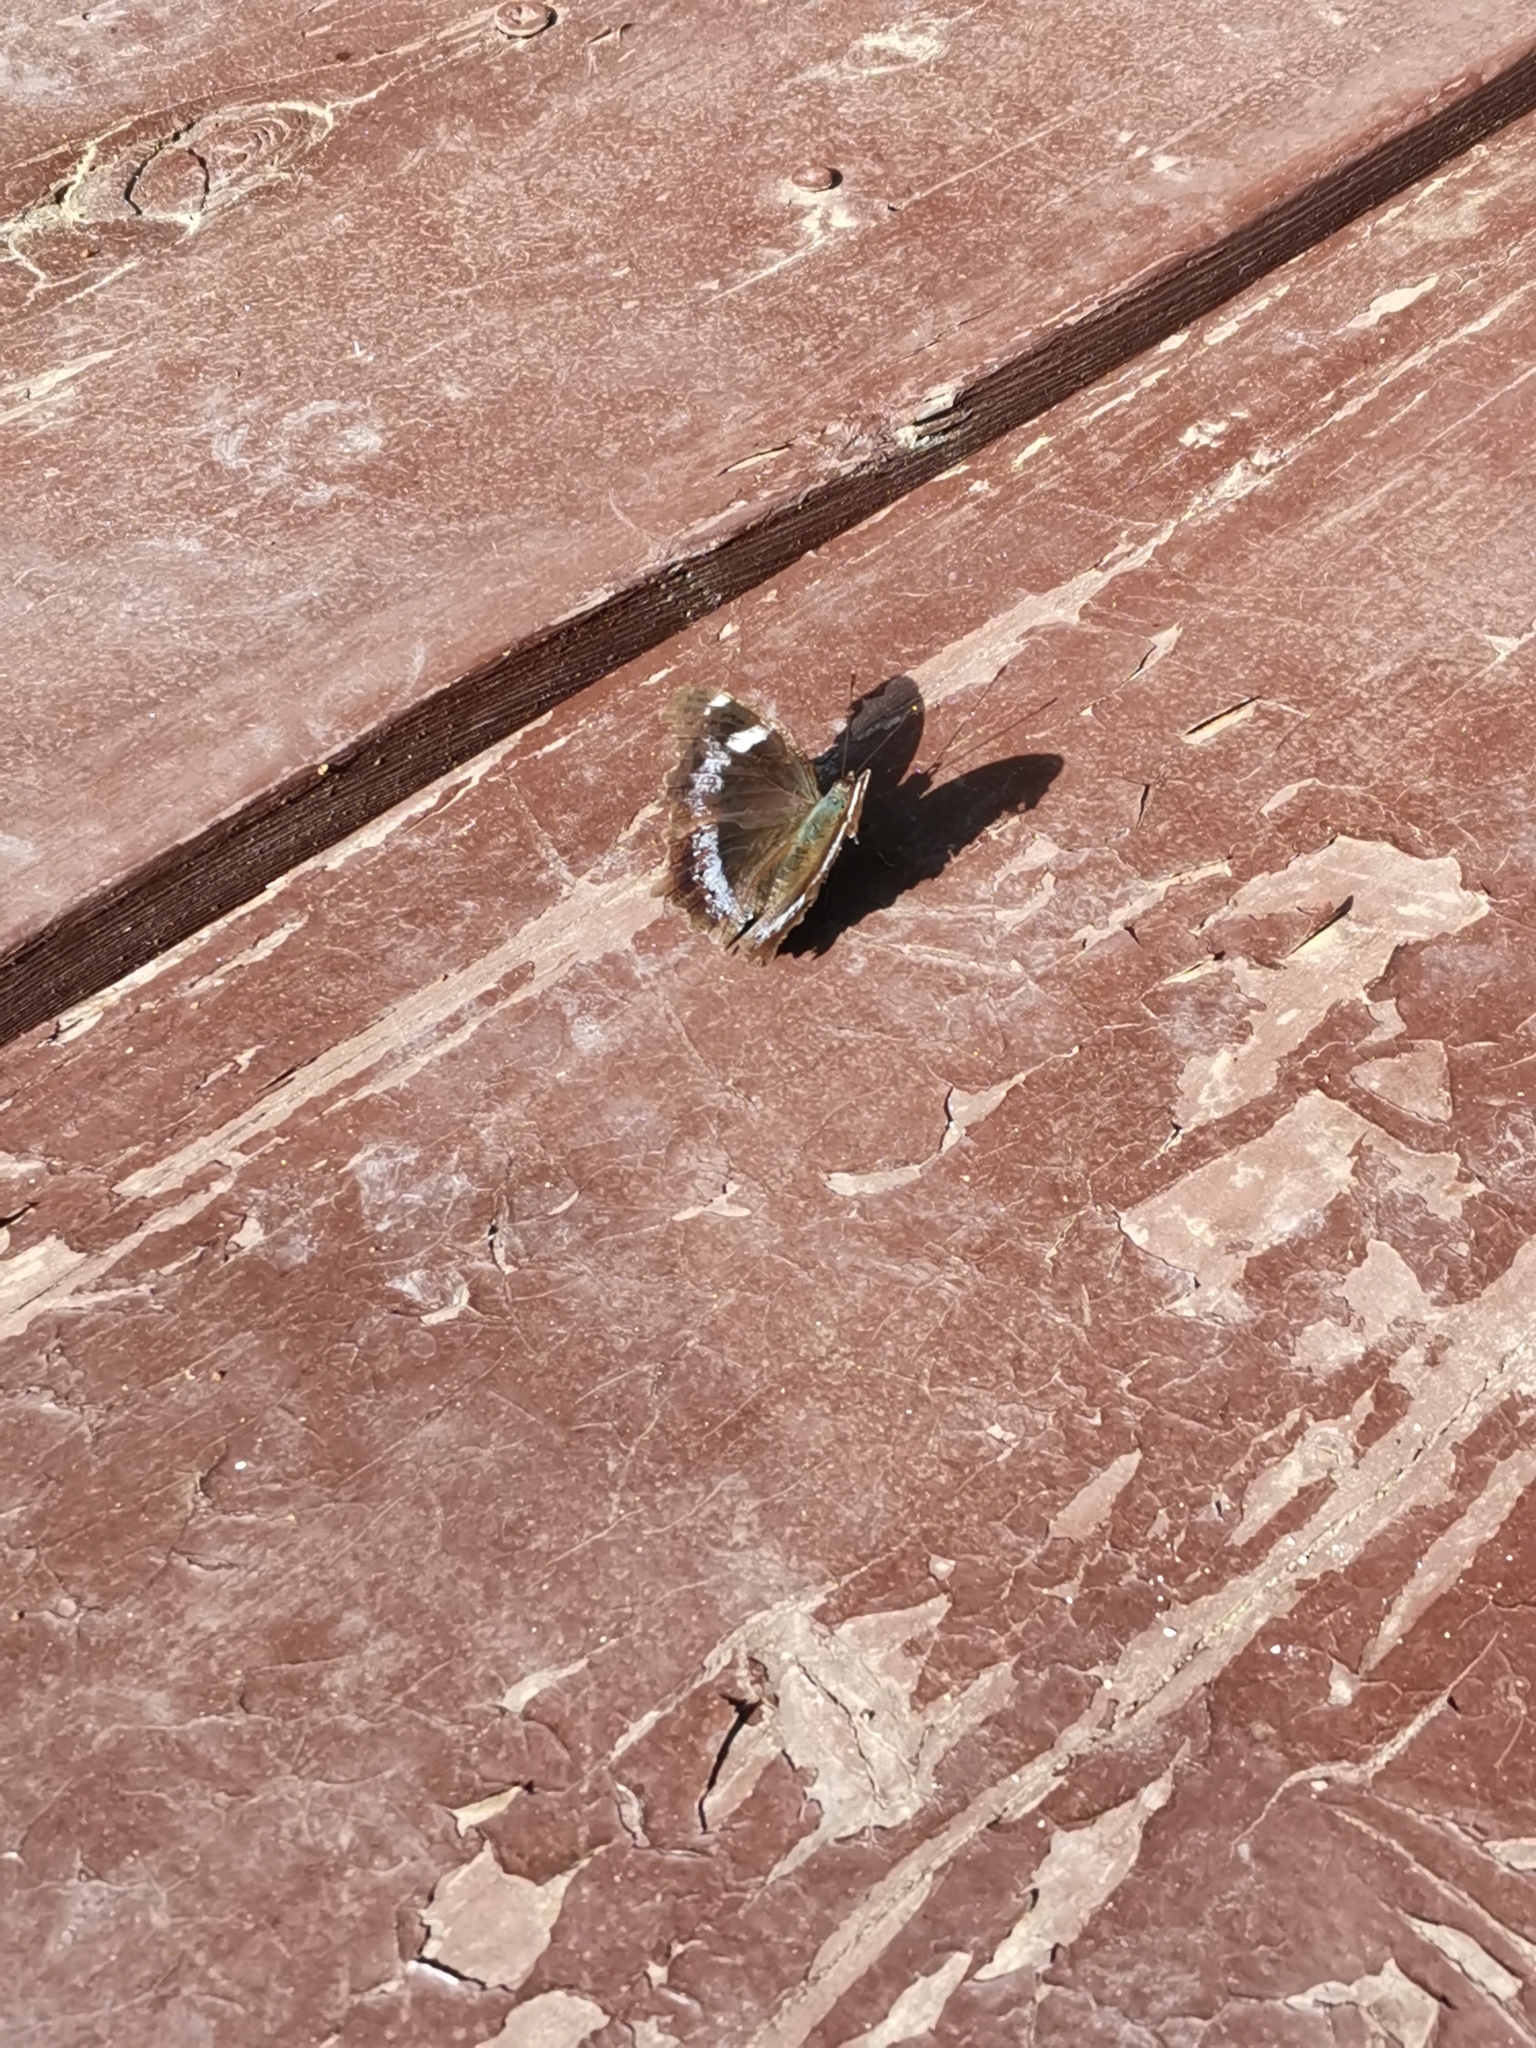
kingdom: Animalia
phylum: Arthropoda
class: Insecta
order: Lepidoptera
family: Nymphalidae
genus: Vanessa
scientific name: Vanessa Kaniska canace
